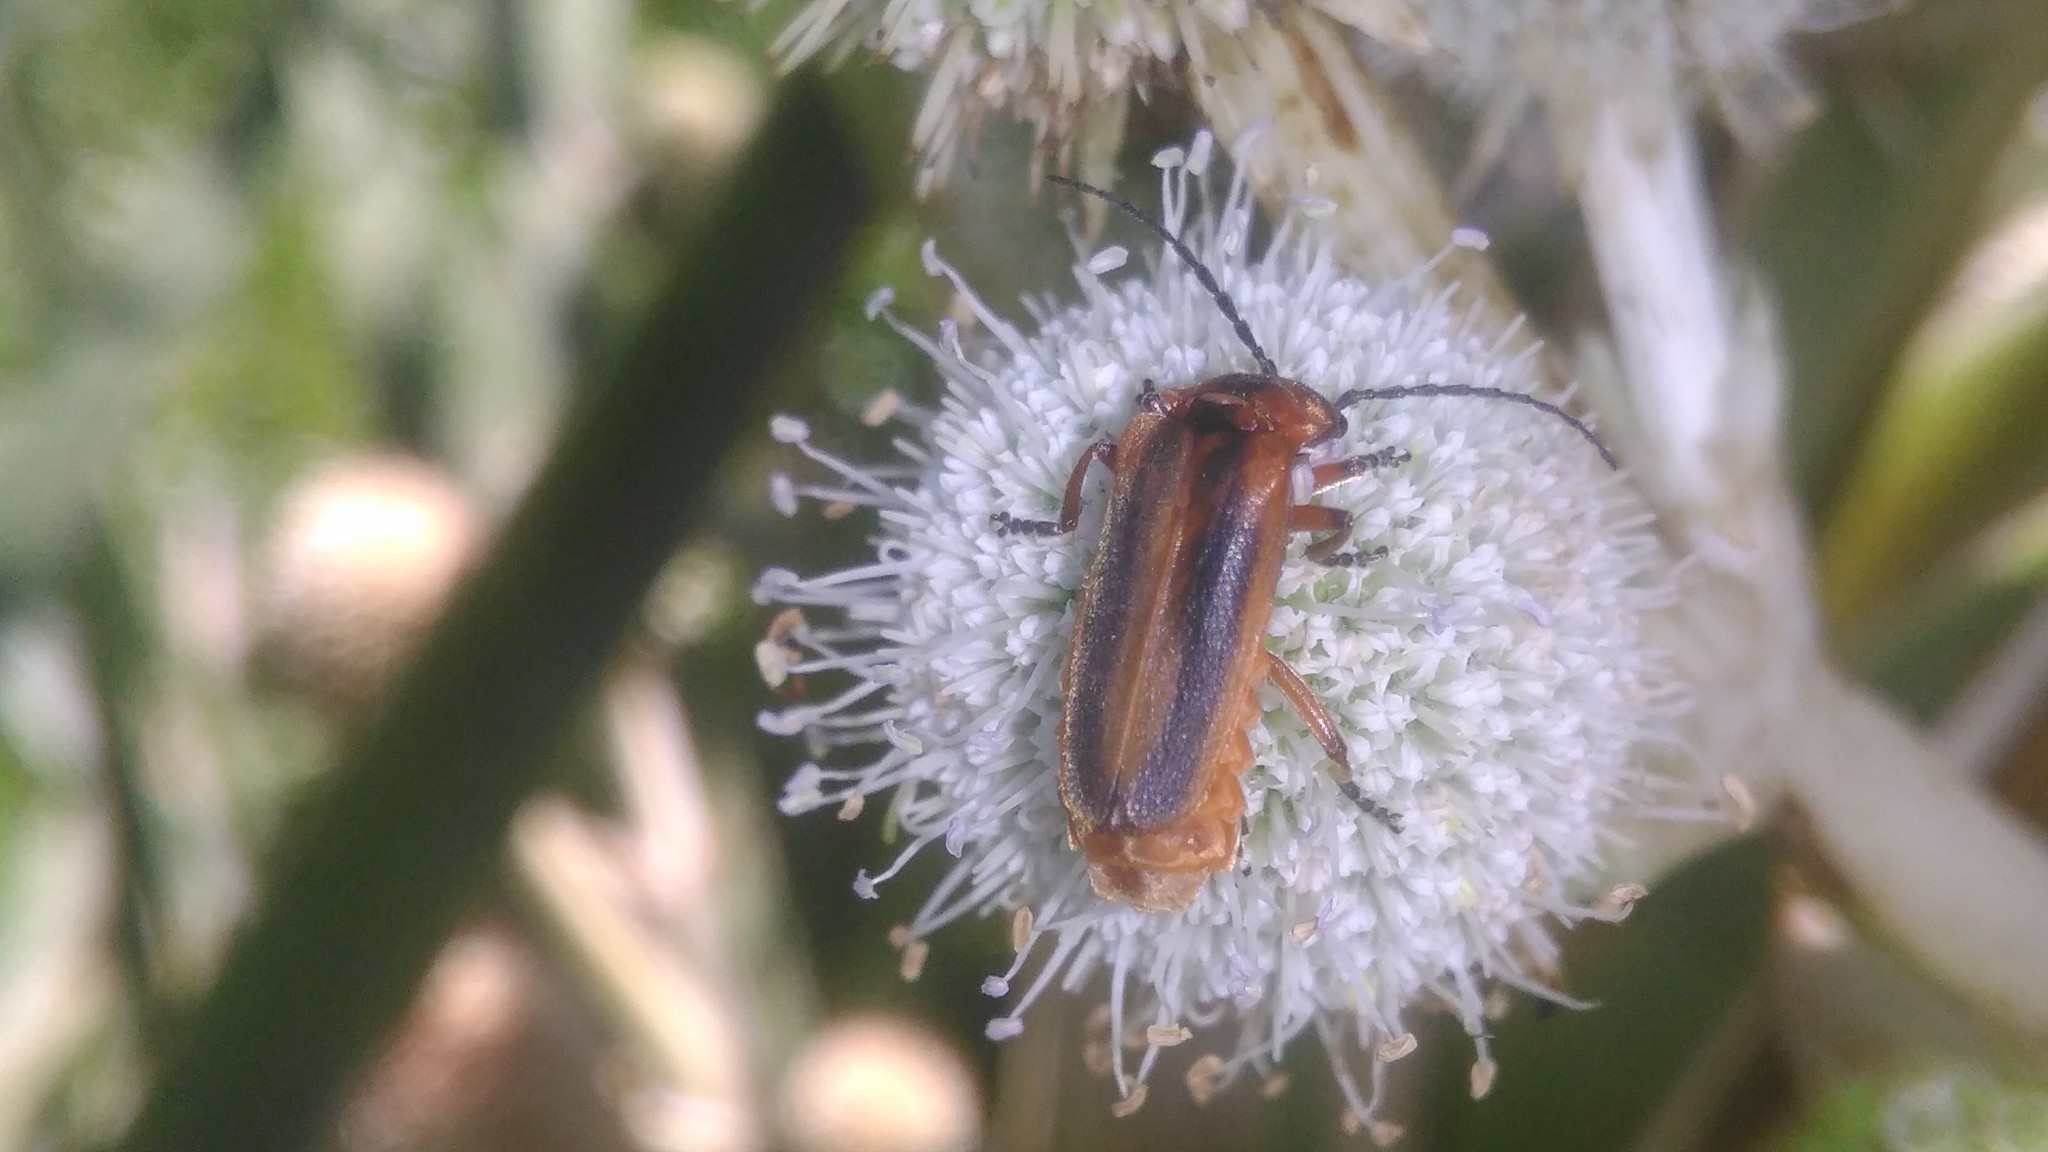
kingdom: Animalia
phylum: Arthropoda
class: Insecta
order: Coleoptera
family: Cantharidae
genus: Discodon
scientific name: Discodon
